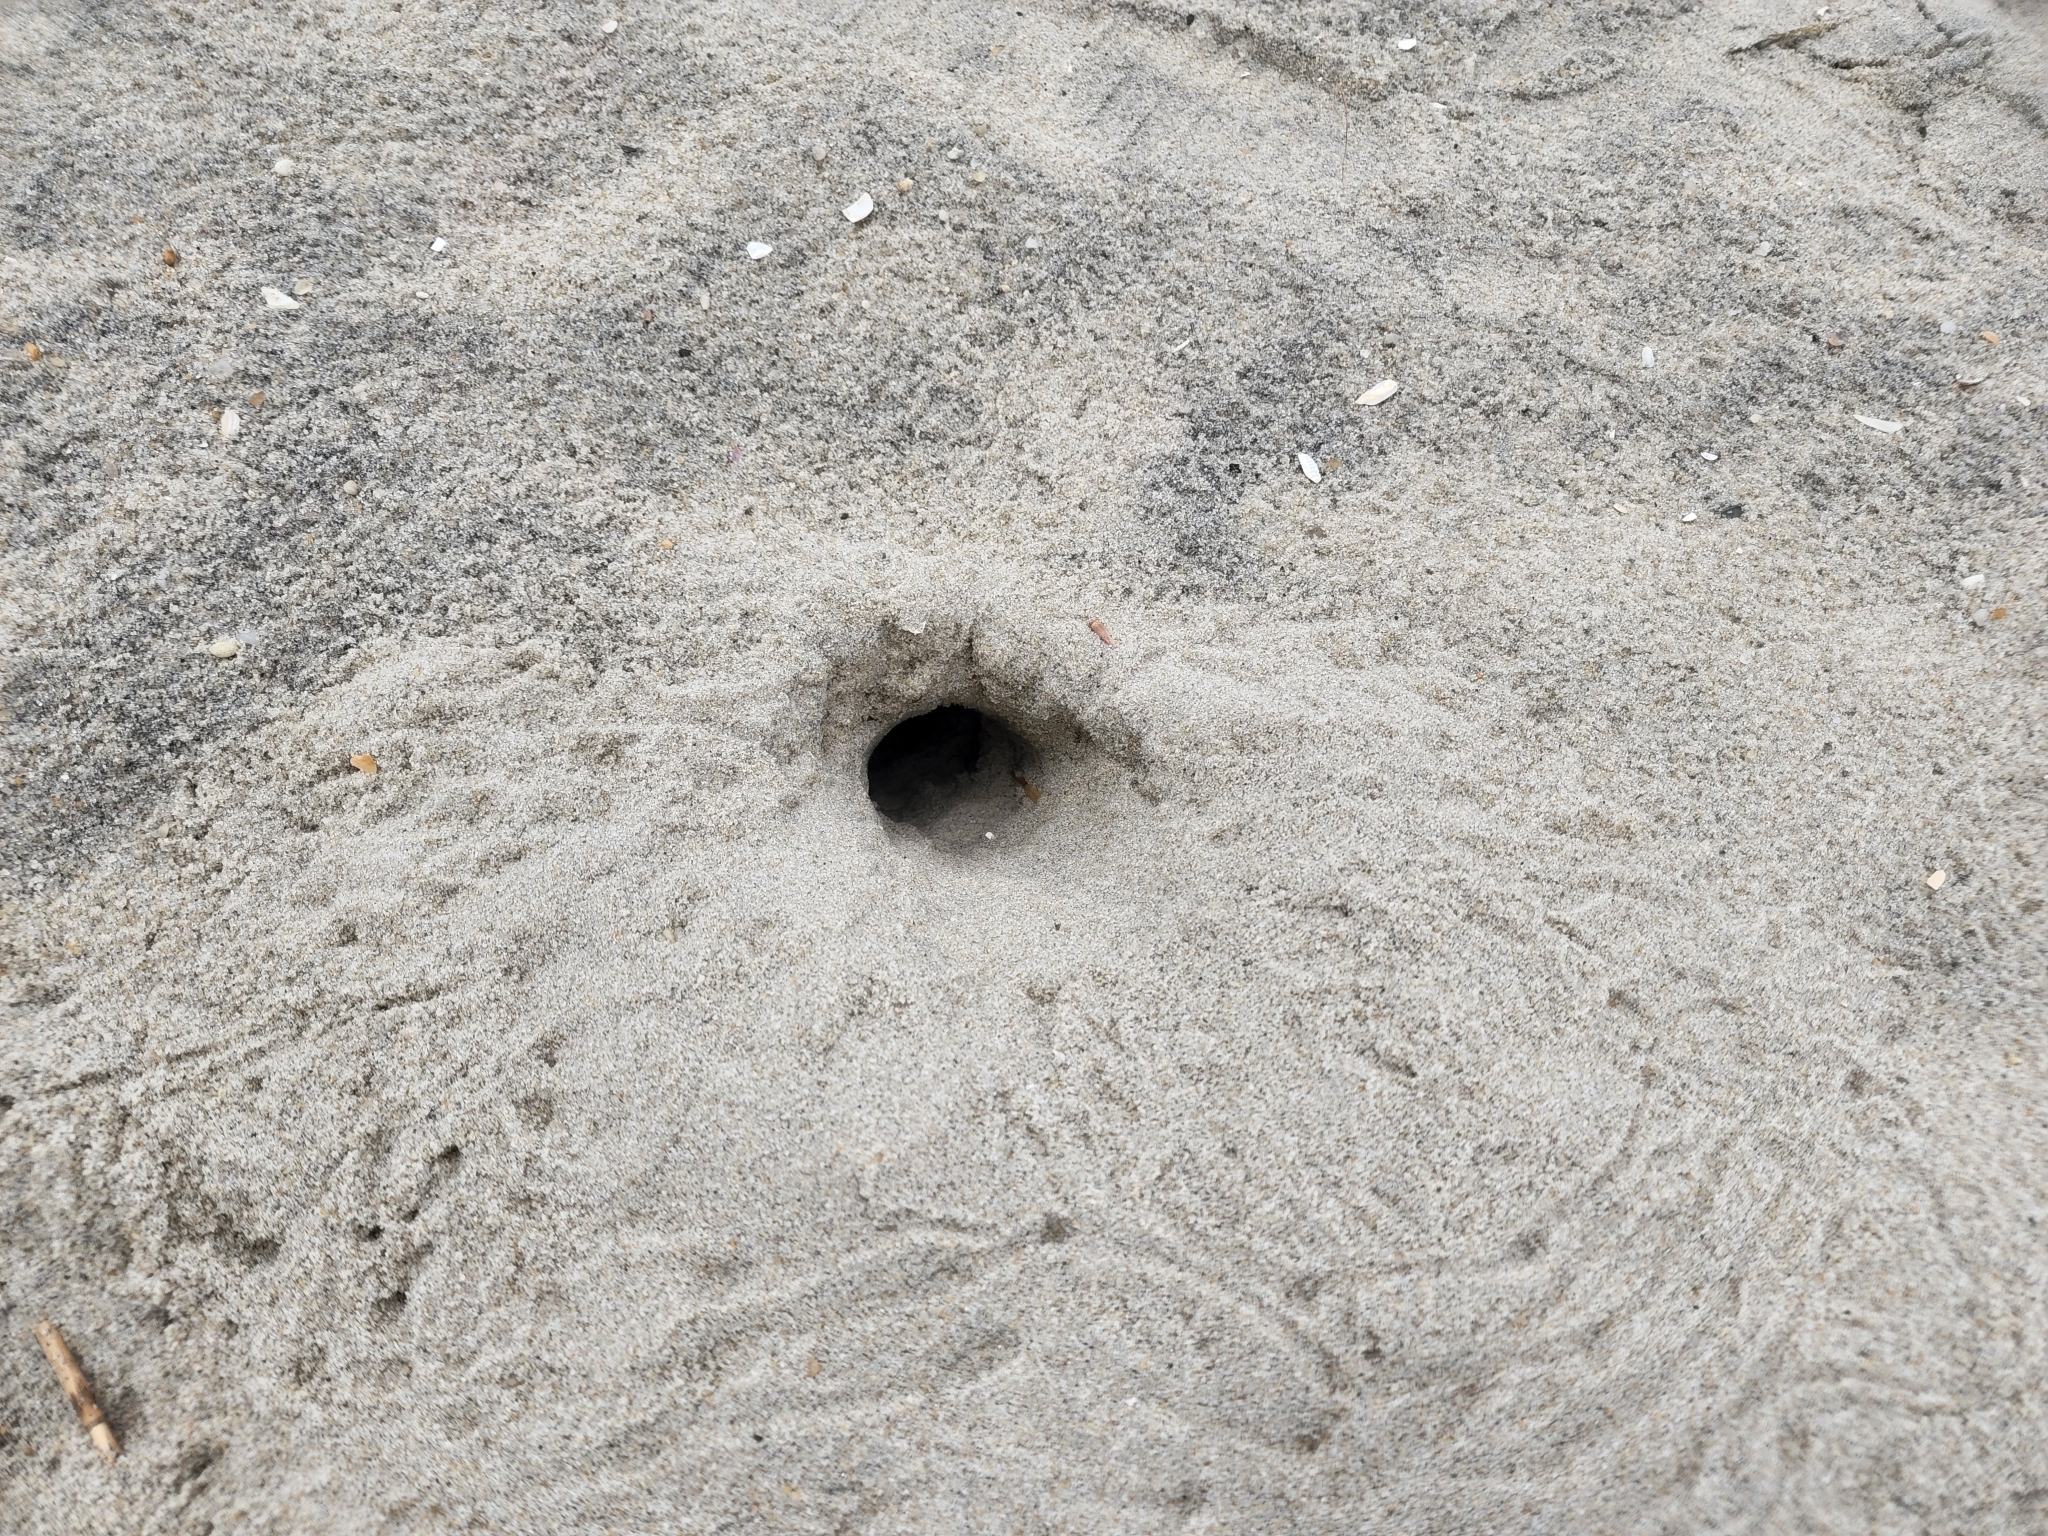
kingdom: Animalia
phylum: Arthropoda
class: Malacostraca
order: Decapoda
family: Ocypodidae
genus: Ocypode
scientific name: Ocypode quadrata
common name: Ghost crab
